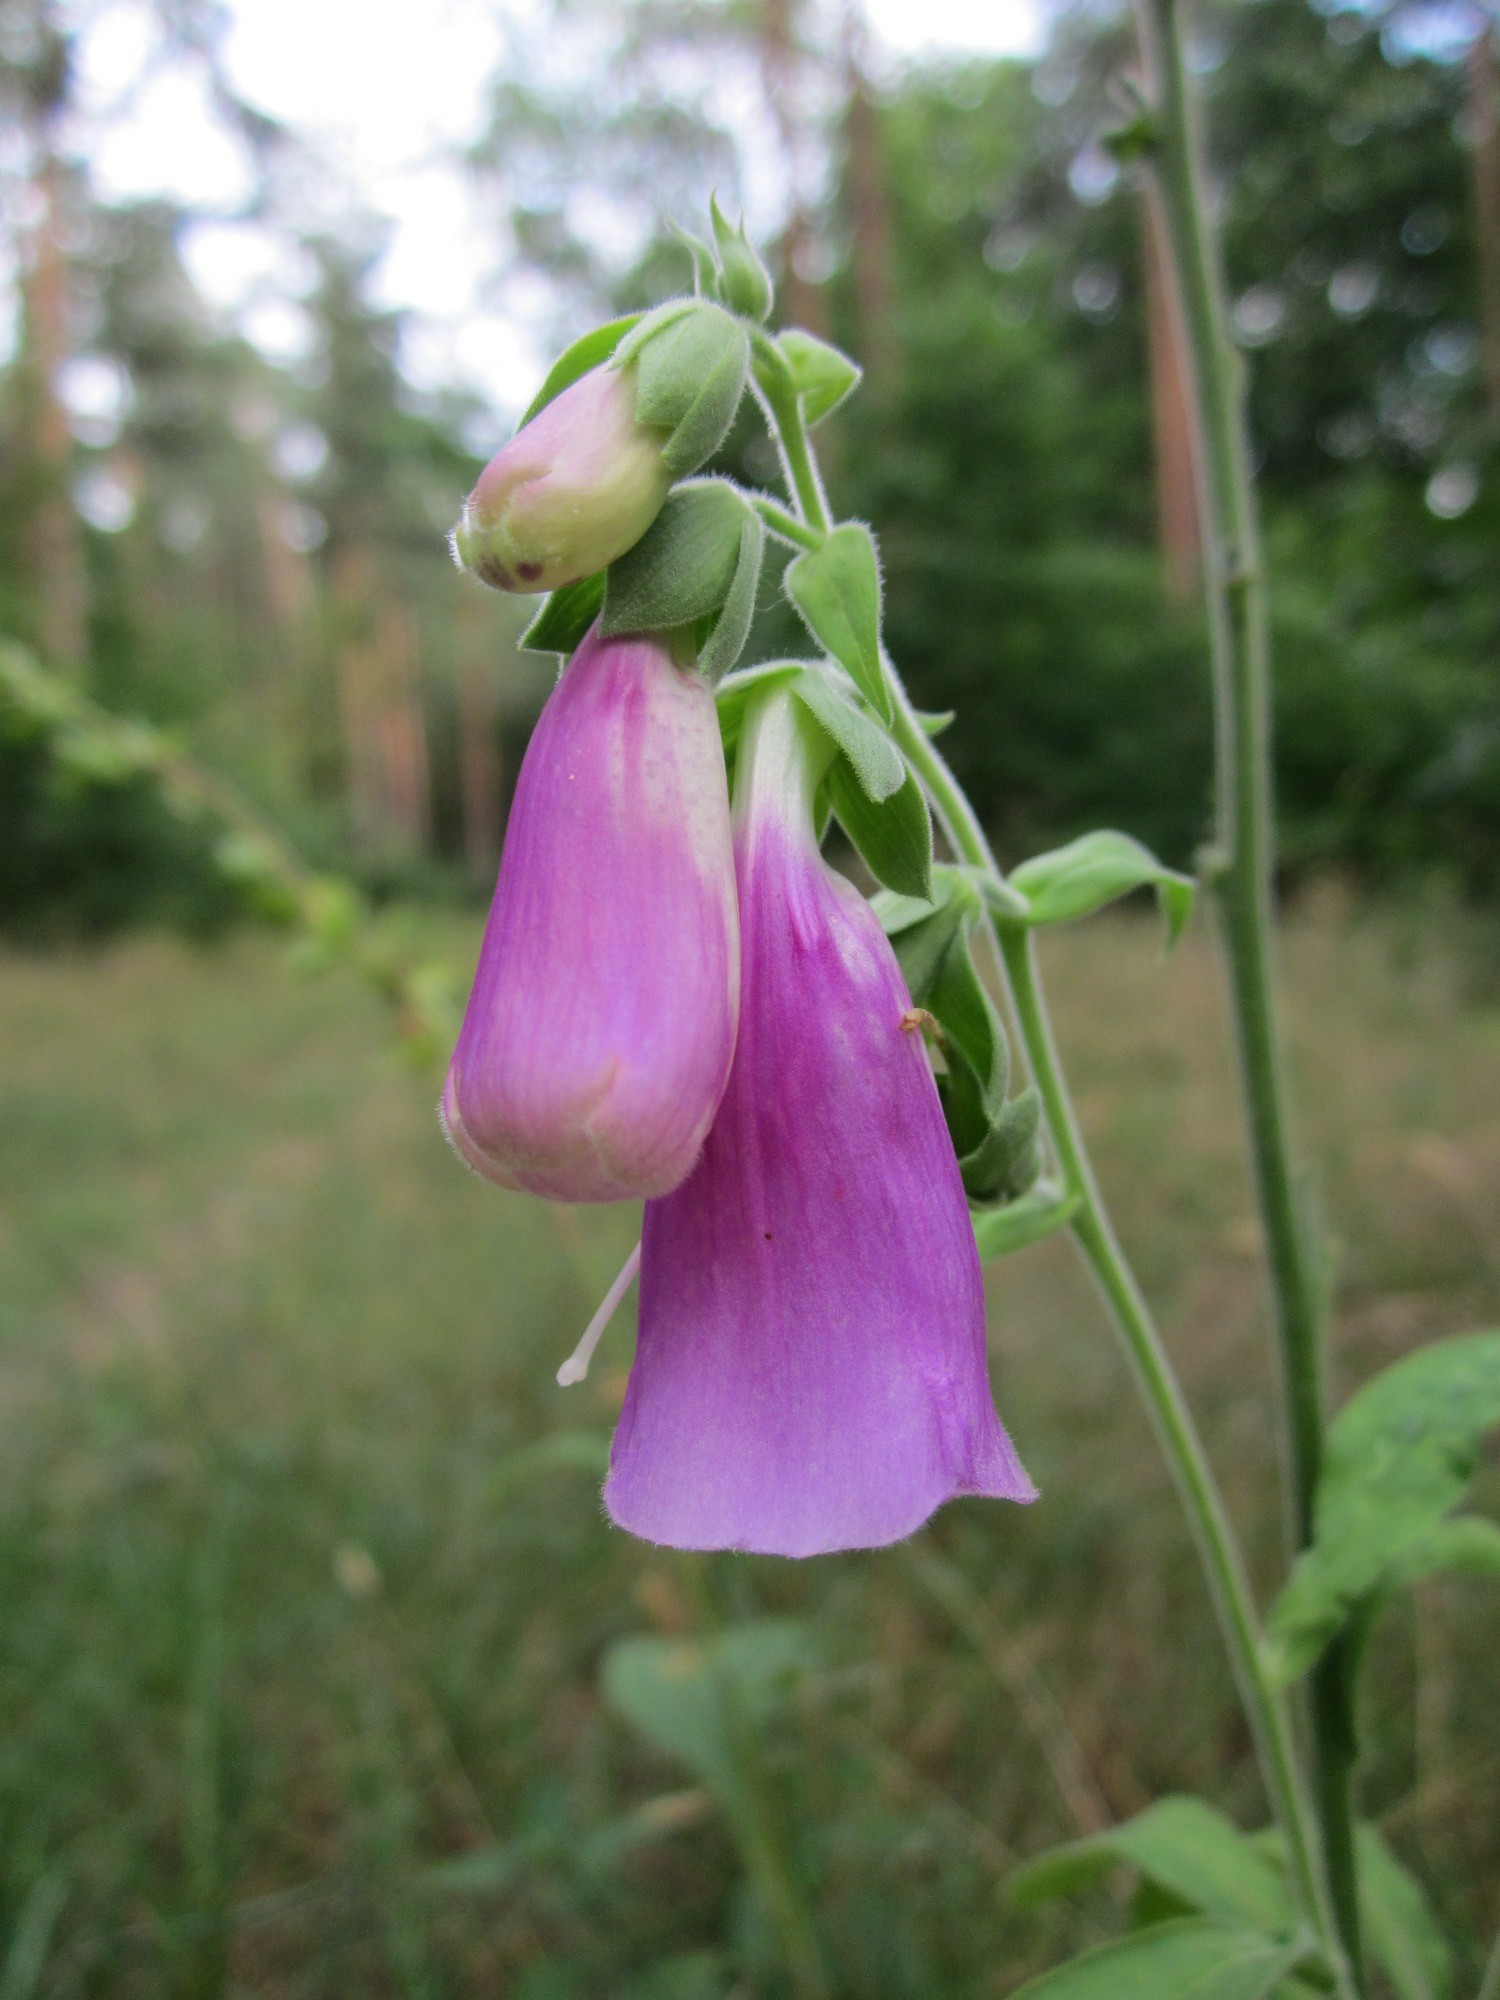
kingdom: Plantae
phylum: Tracheophyta
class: Magnoliopsida
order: Lamiales
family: Plantaginaceae
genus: Digitalis
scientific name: Digitalis purpurea
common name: Foxglove
